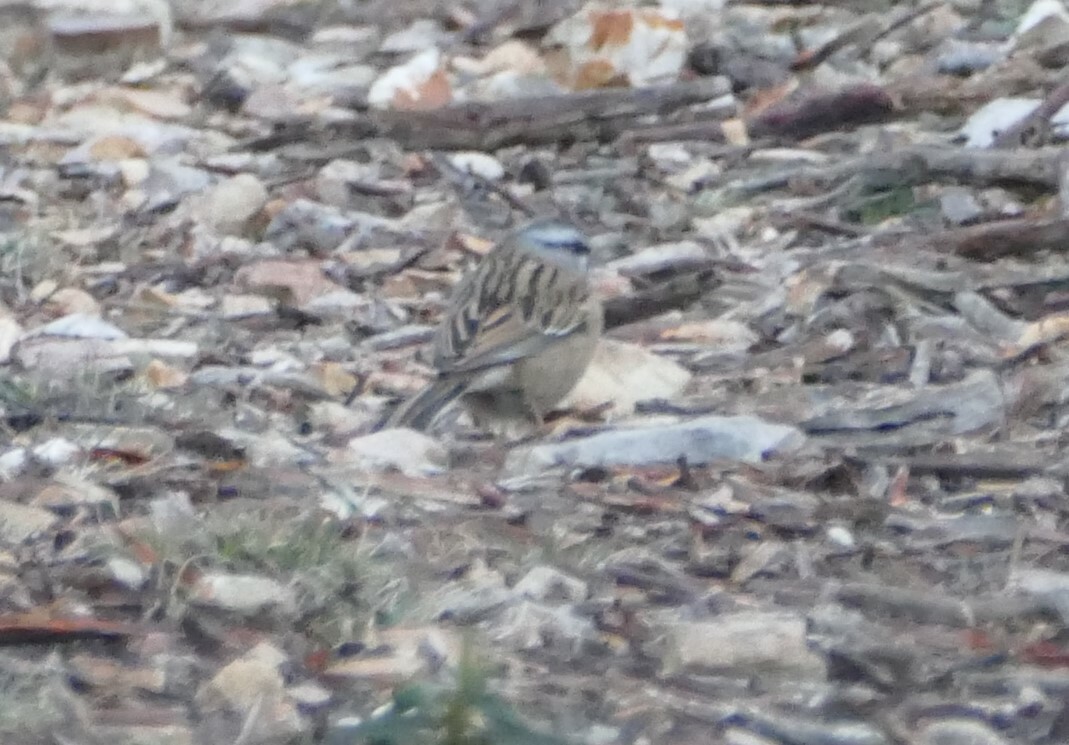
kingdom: Animalia
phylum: Chordata
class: Aves
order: Passeriformes
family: Emberizidae
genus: Emberiza
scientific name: Emberiza cia
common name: Rock bunting
